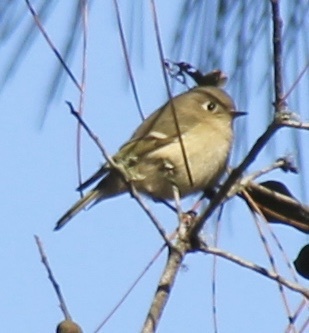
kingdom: Animalia
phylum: Chordata
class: Aves
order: Passeriformes
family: Regulidae
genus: Regulus
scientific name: Regulus calendula
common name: Ruby-crowned kinglet
